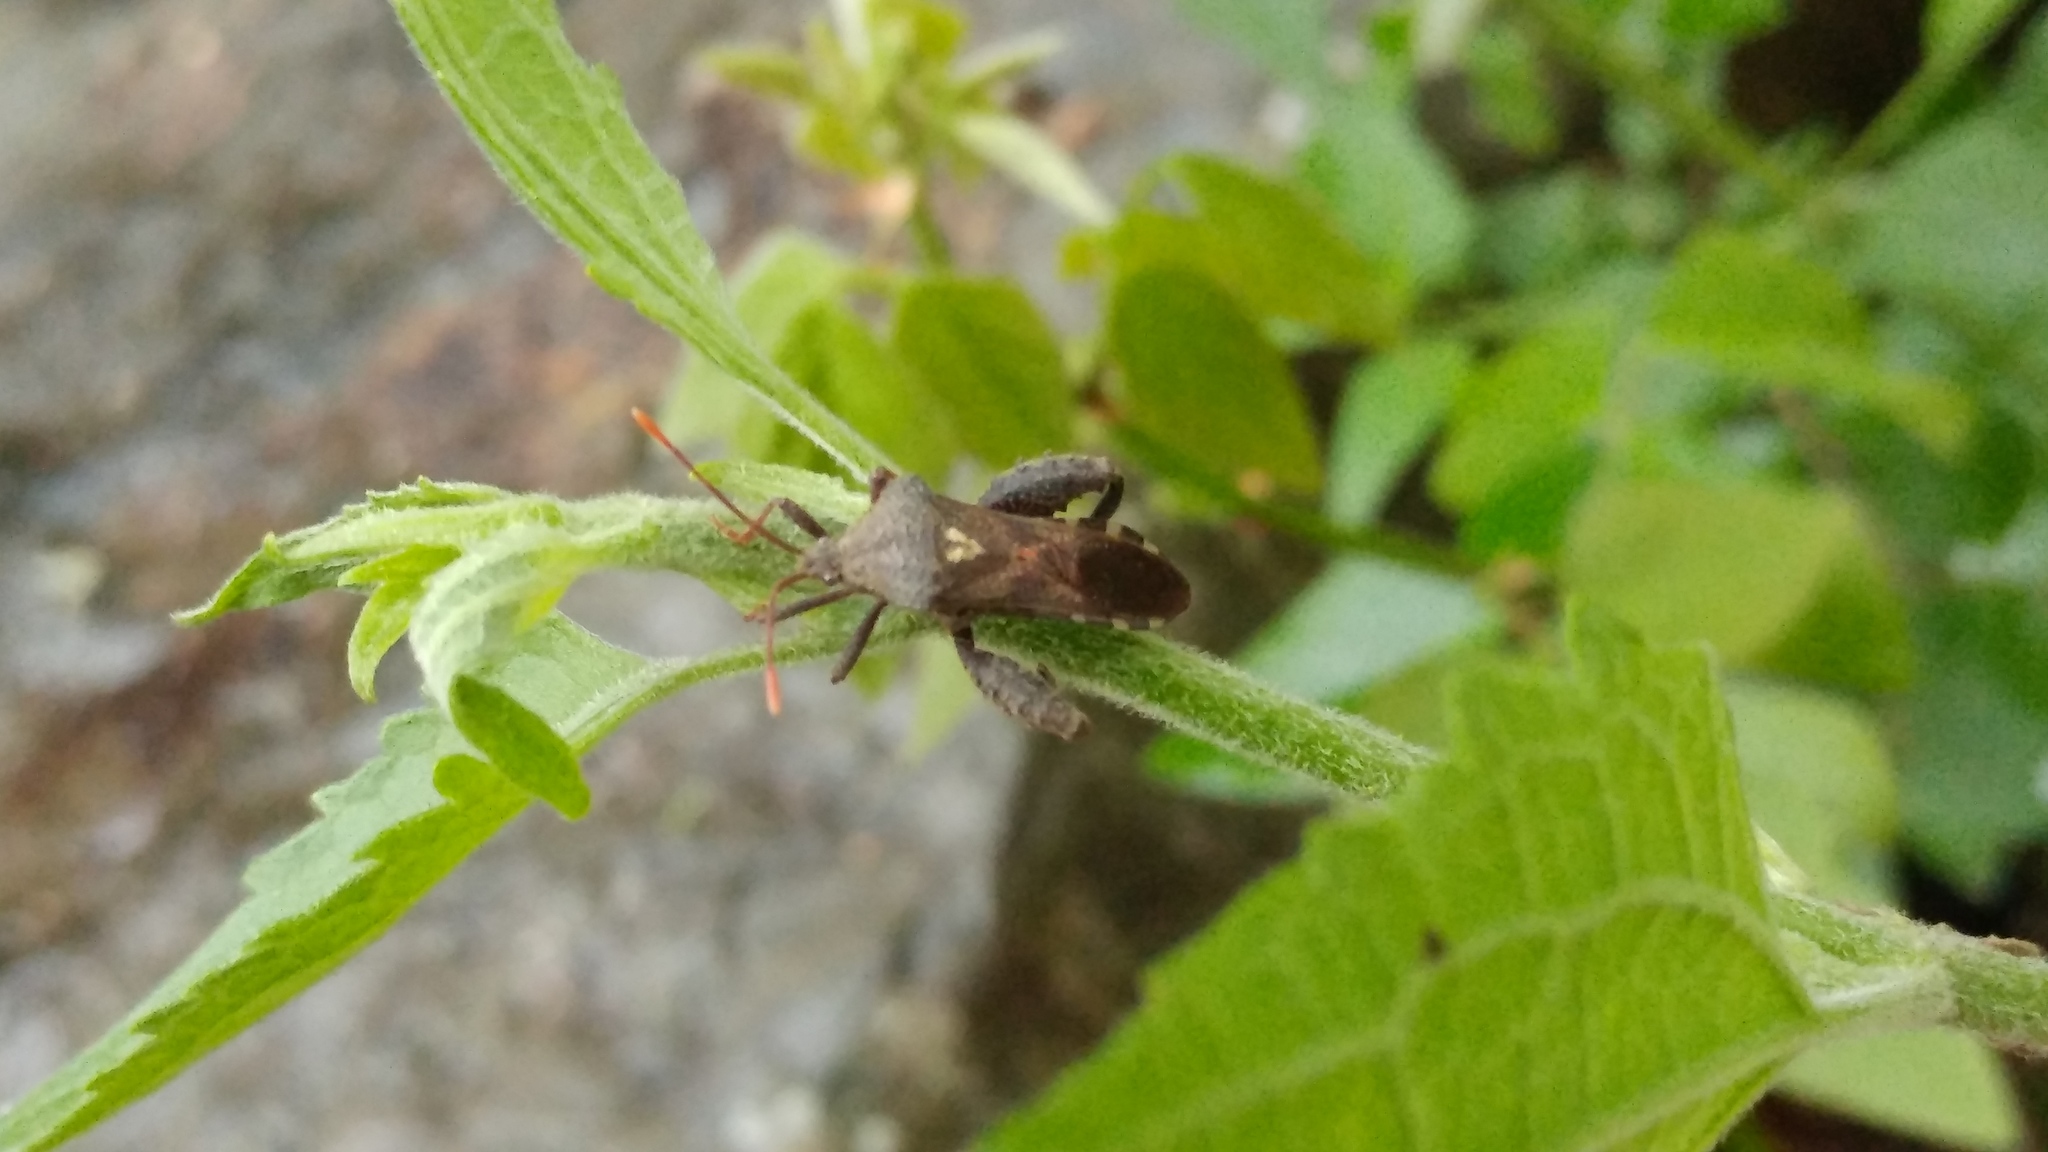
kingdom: Animalia
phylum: Arthropoda
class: Insecta
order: Hemiptera
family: Coreidae
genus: Piezogaster
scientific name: Piezogaster indecorus
